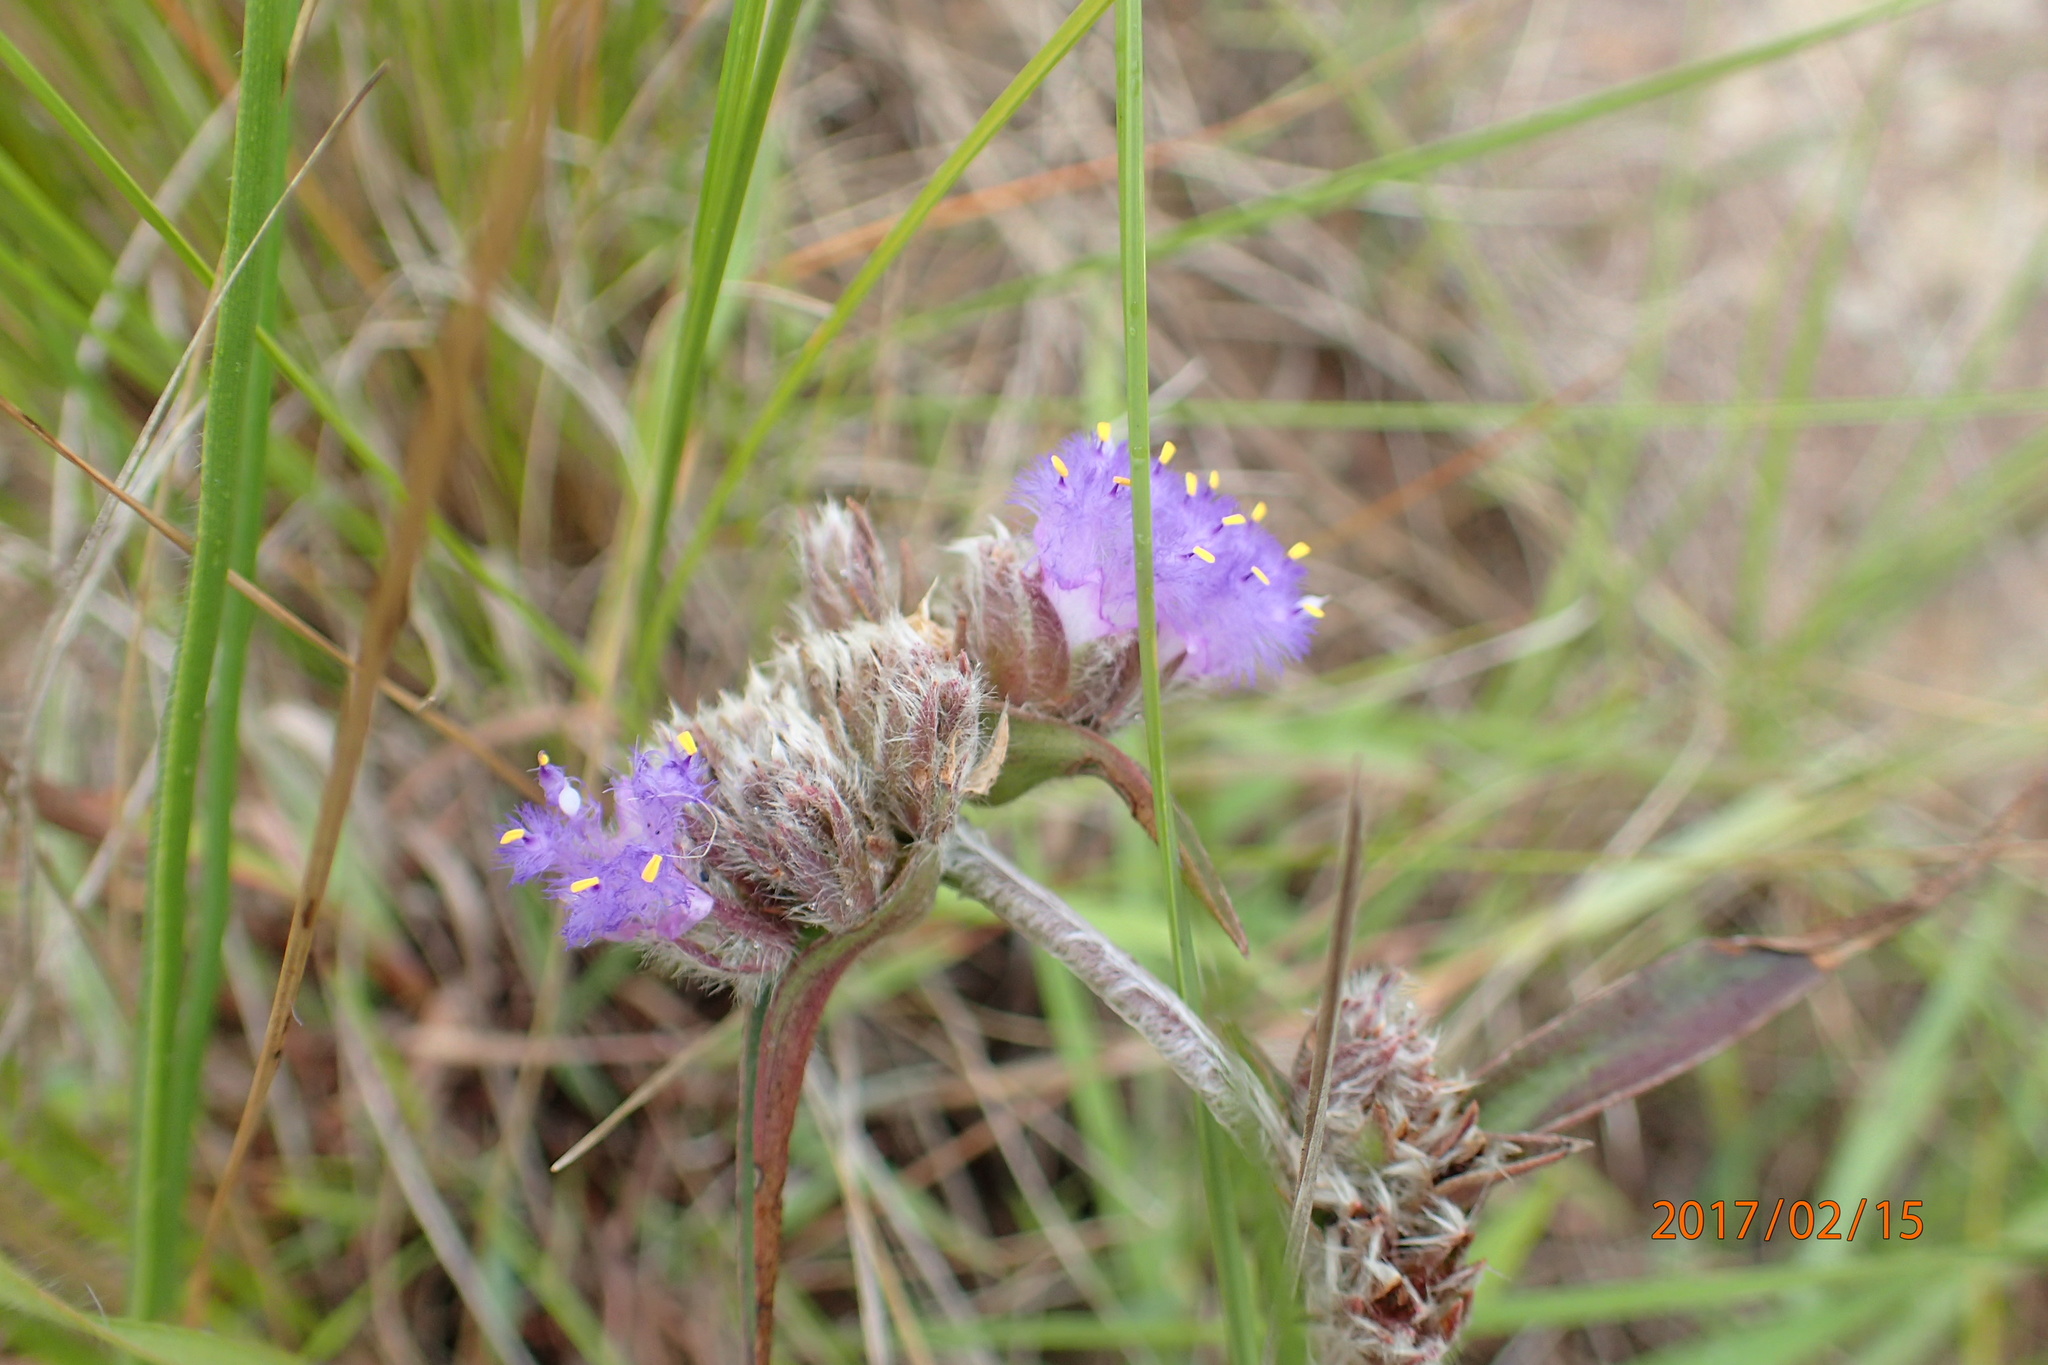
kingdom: Plantae
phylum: Tracheophyta
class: Liliopsida
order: Commelinales
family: Commelinaceae
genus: Cyanotis
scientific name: Cyanotis speciosa
